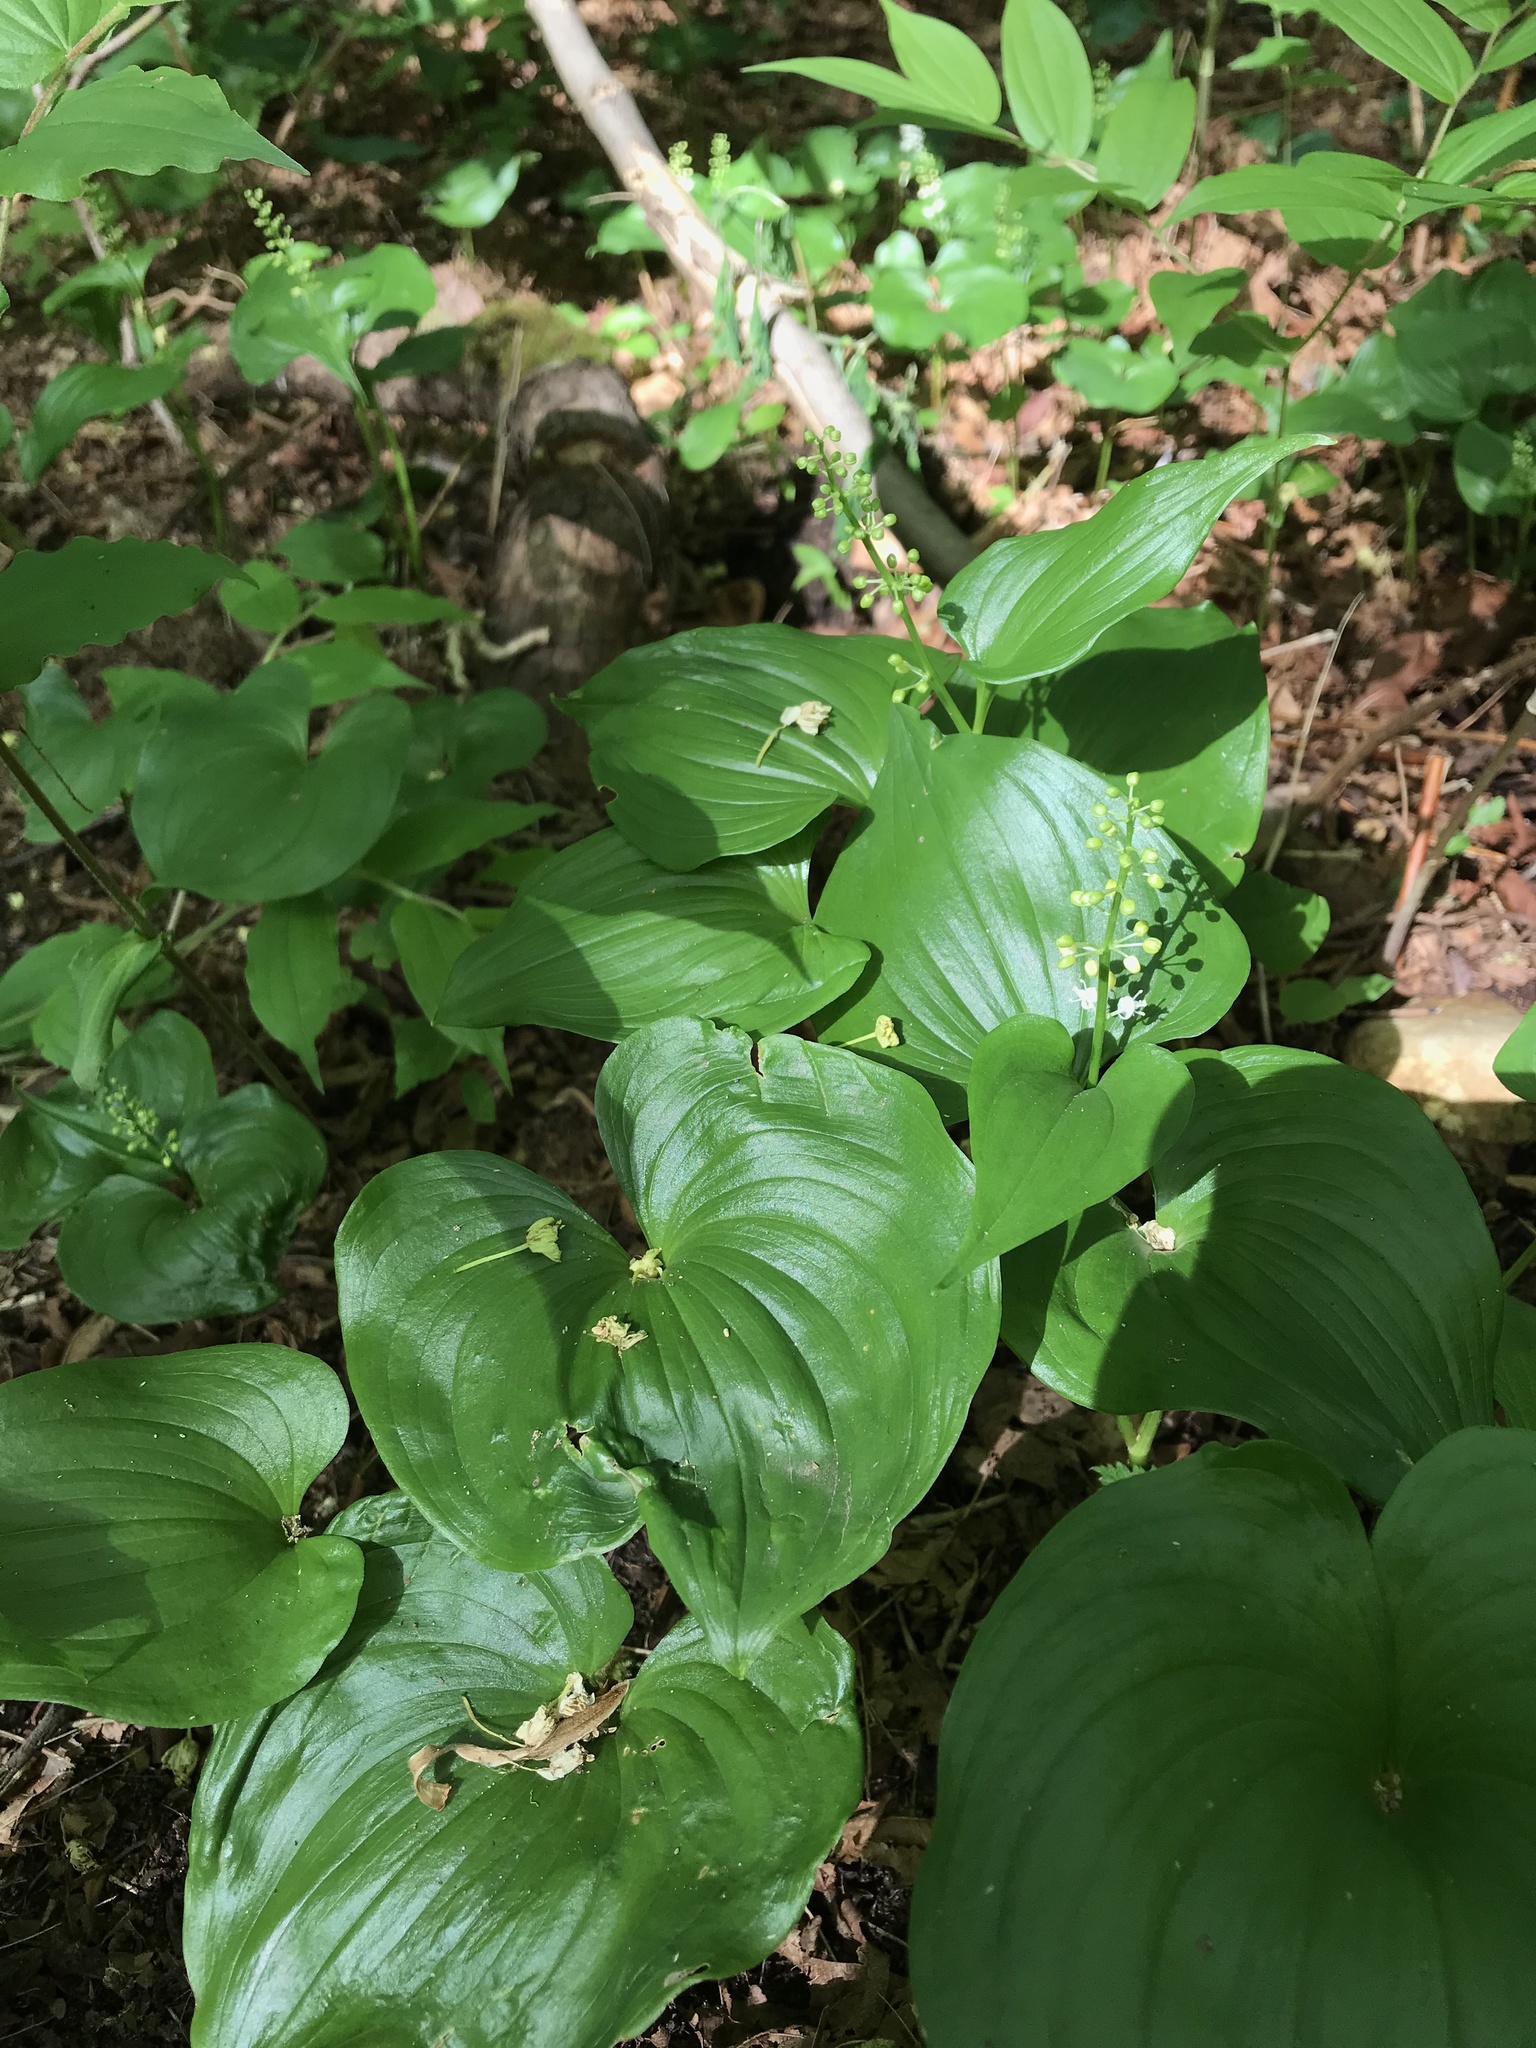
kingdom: Plantae
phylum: Tracheophyta
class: Liliopsida
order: Asparagales
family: Asparagaceae
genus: Maianthemum
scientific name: Maianthemum dilatatum
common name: False lily-of-the-valley
